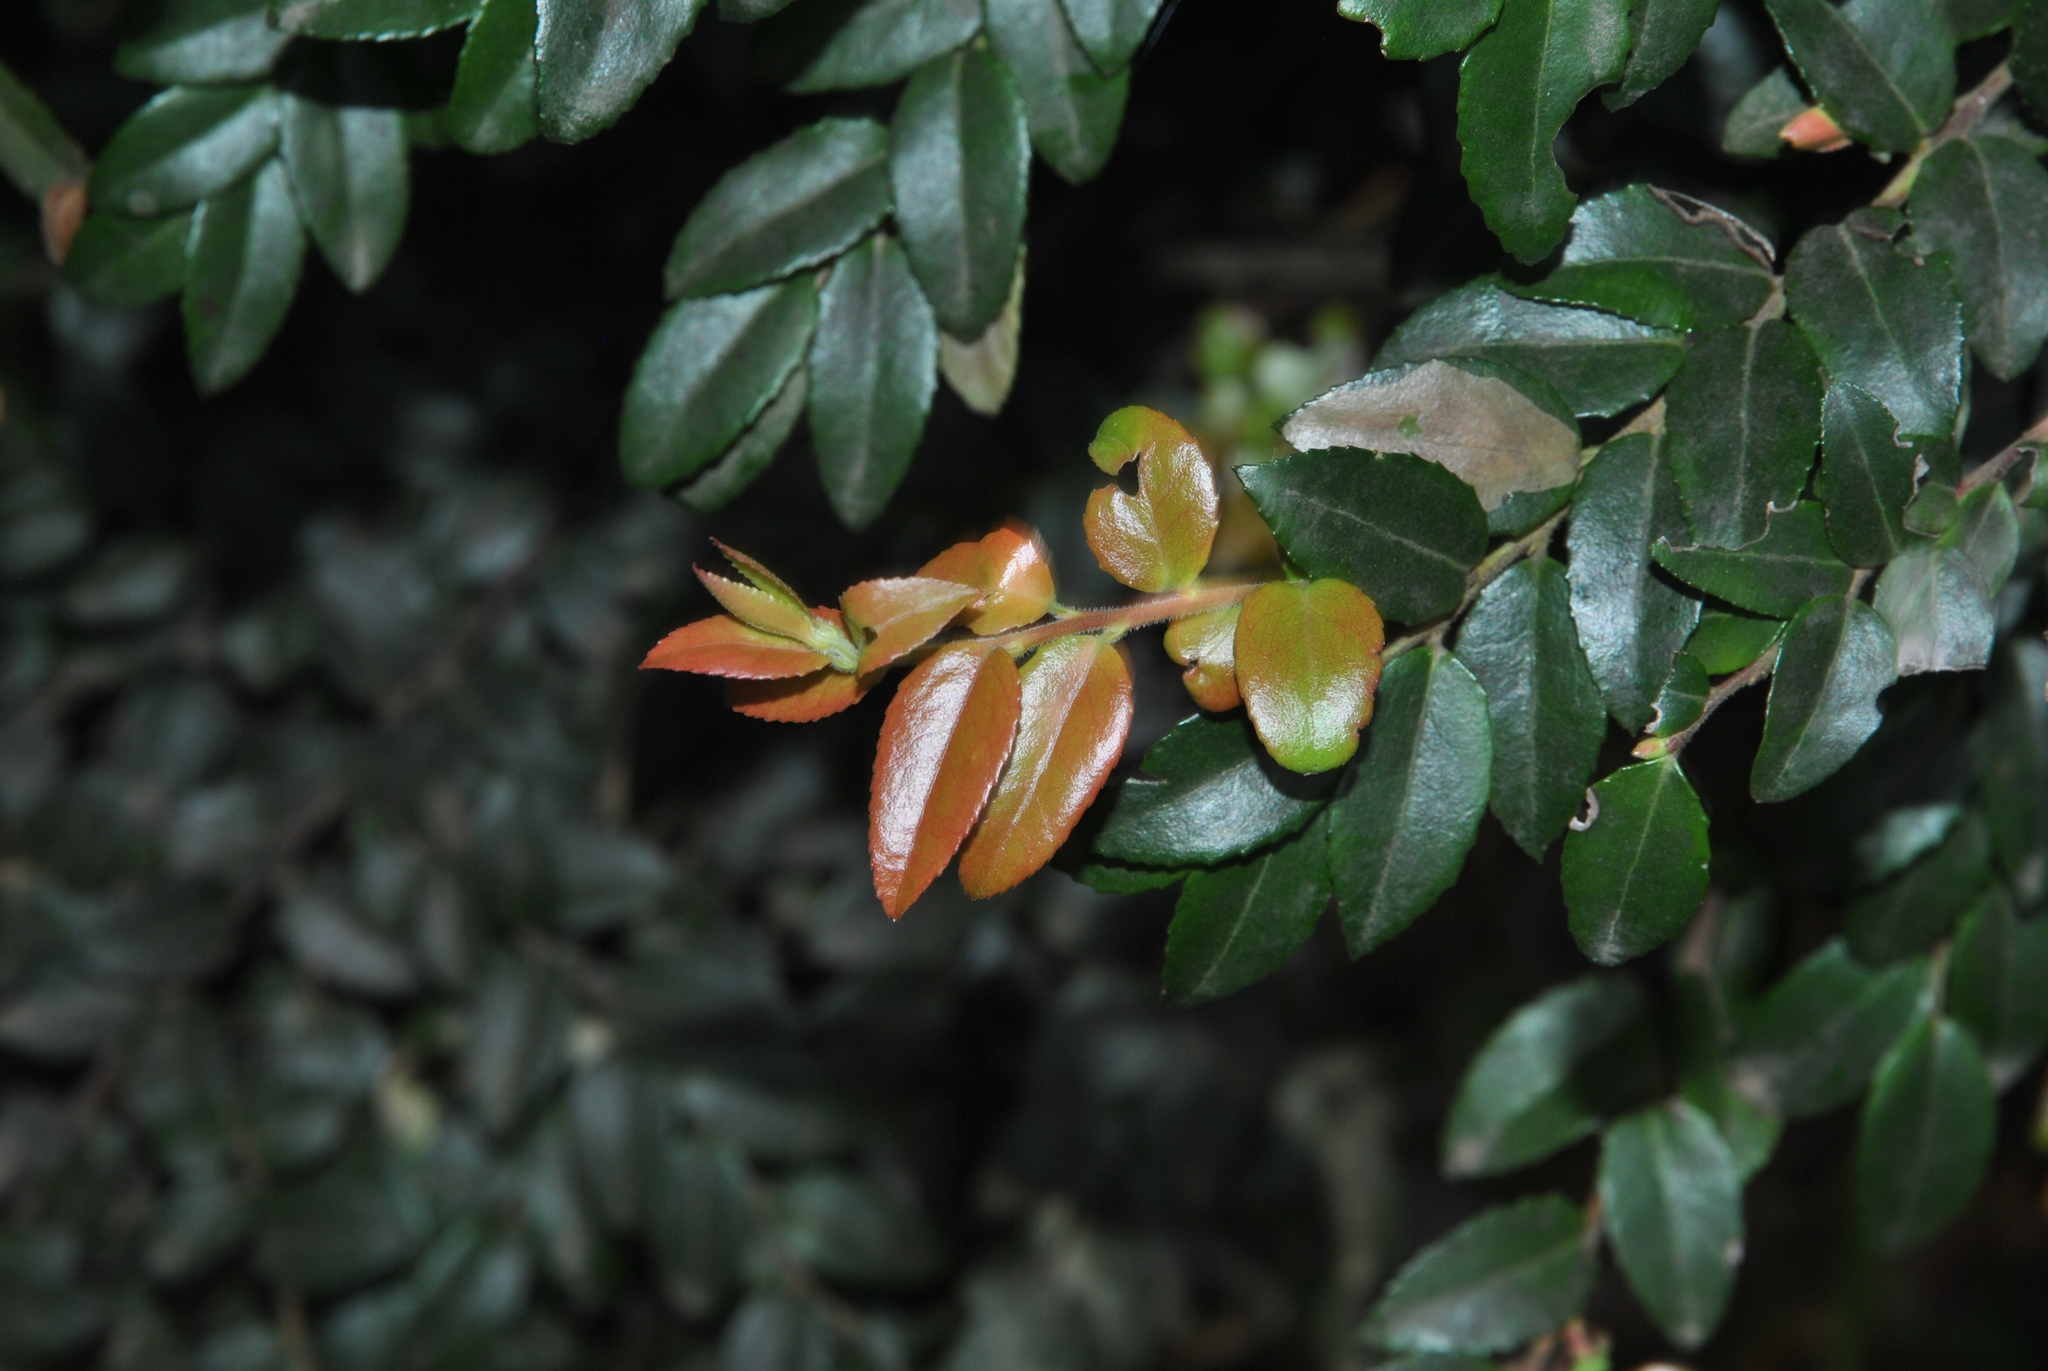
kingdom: Plantae
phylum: Tracheophyta
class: Magnoliopsida
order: Ericales
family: Ericaceae
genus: Vaccinium
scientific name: Vaccinium ovatum
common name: California-huckleberry
